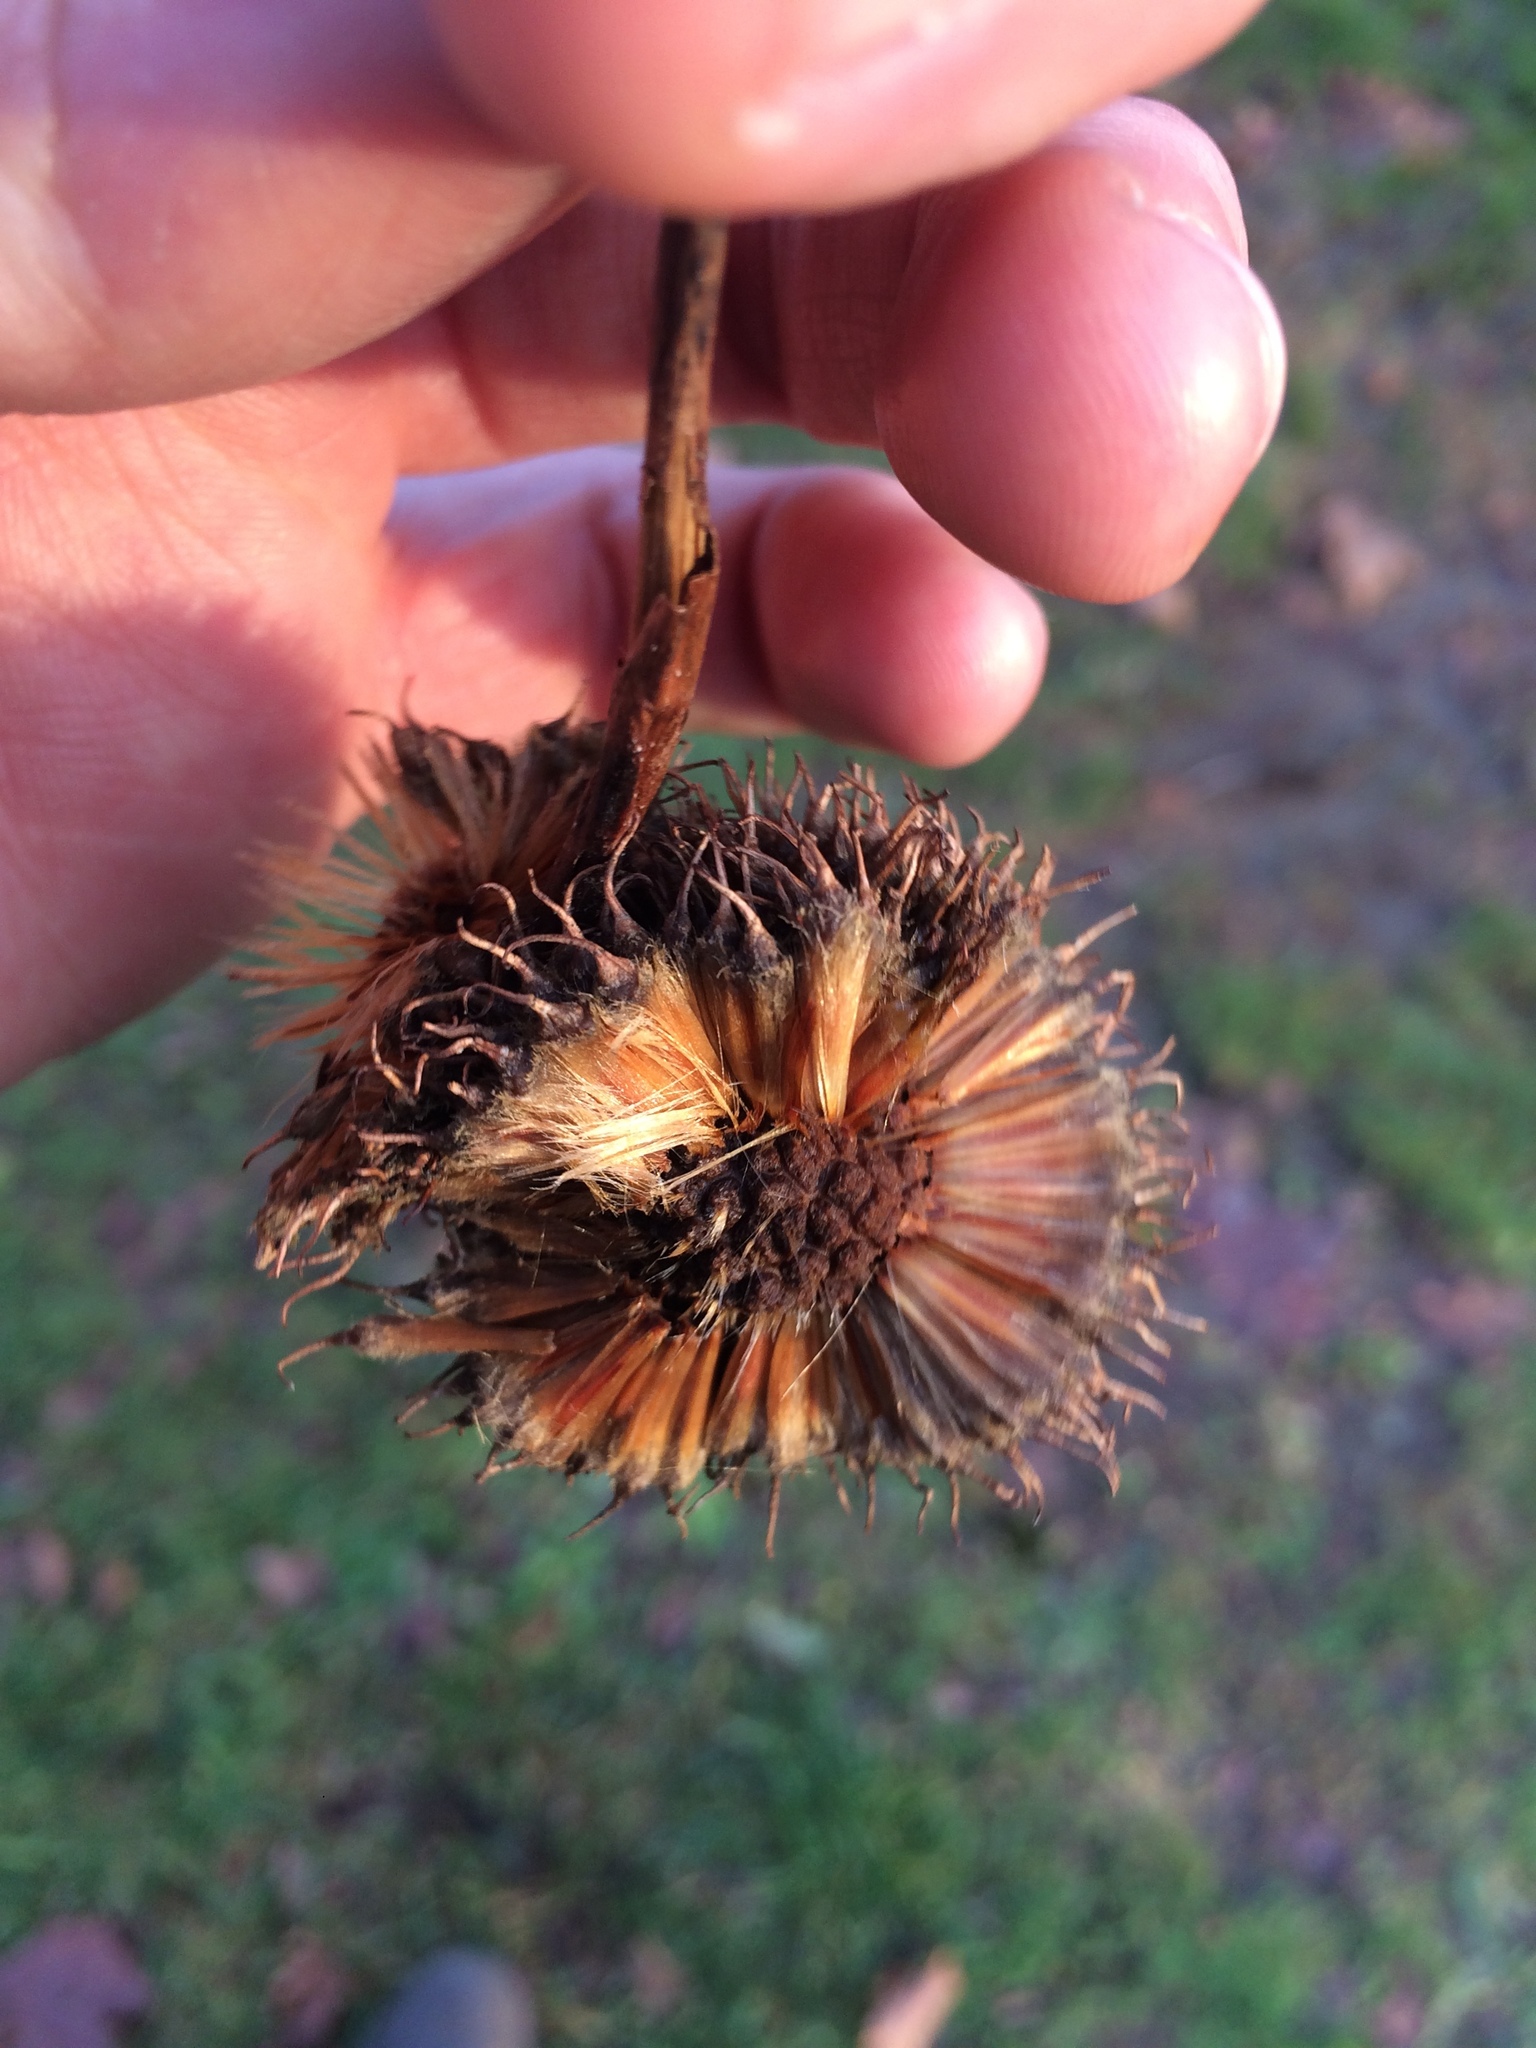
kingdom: Plantae
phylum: Tracheophyta
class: Magnoliopsida
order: Proteales
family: Platanaceae
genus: Platanus
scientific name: Platanus hispanica
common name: London plane
